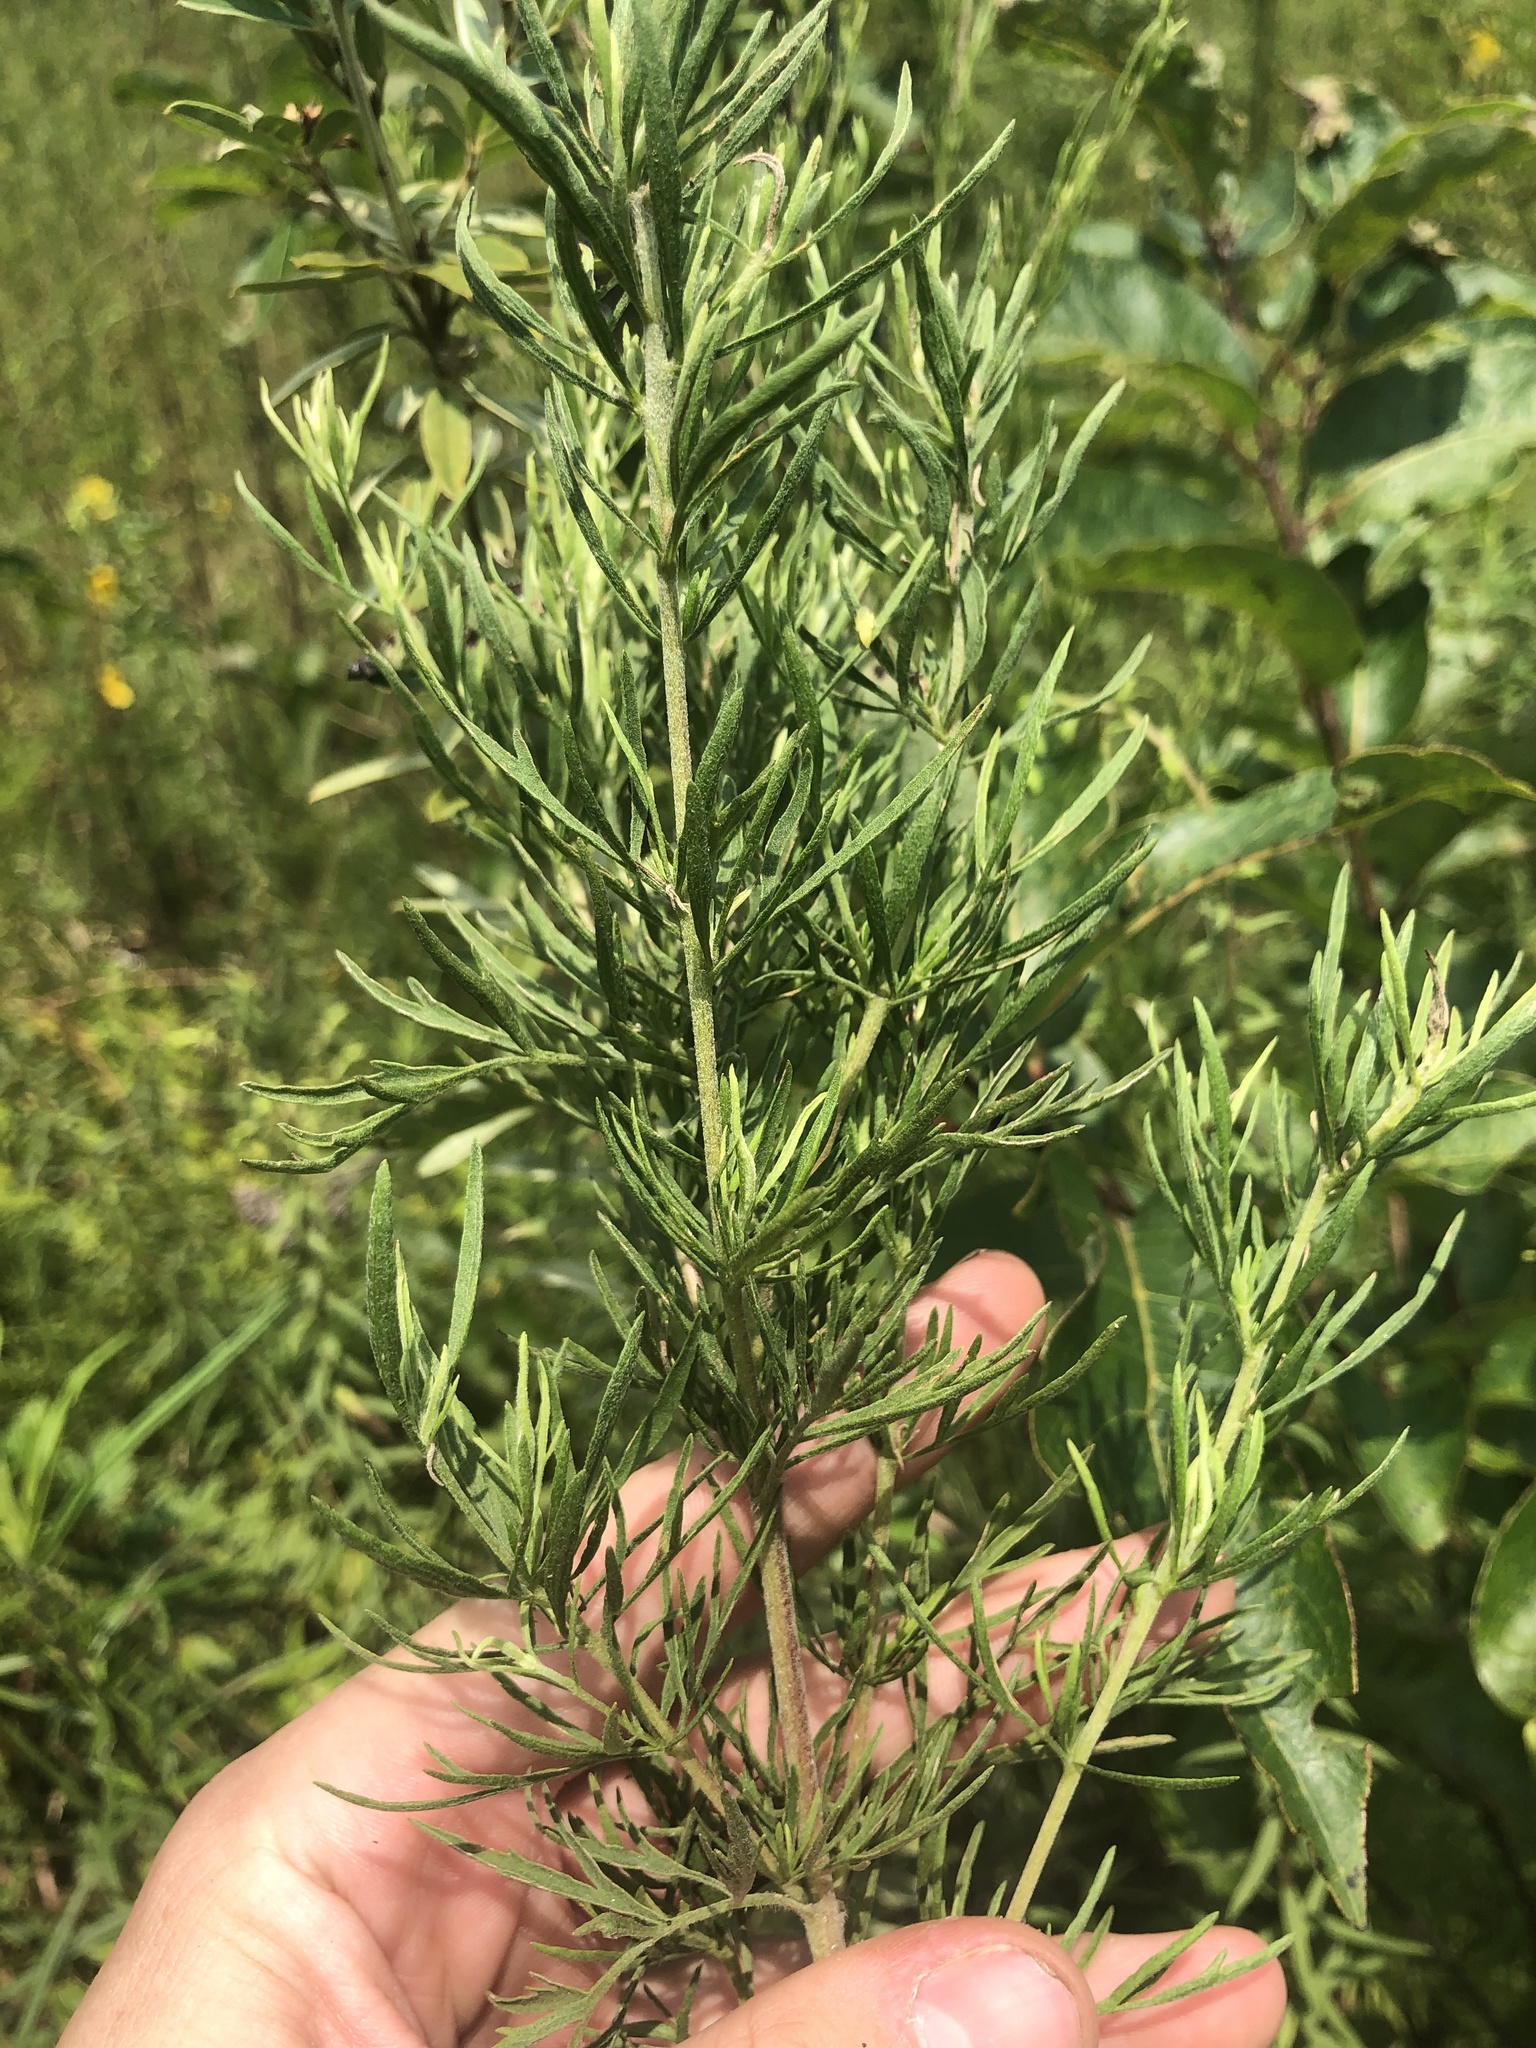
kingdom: Plantae
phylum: Tracheophyta
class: Magnoliopsida
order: Asterales
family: Asteraceae
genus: Eupatorium
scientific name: Eupatorium compositifolium
